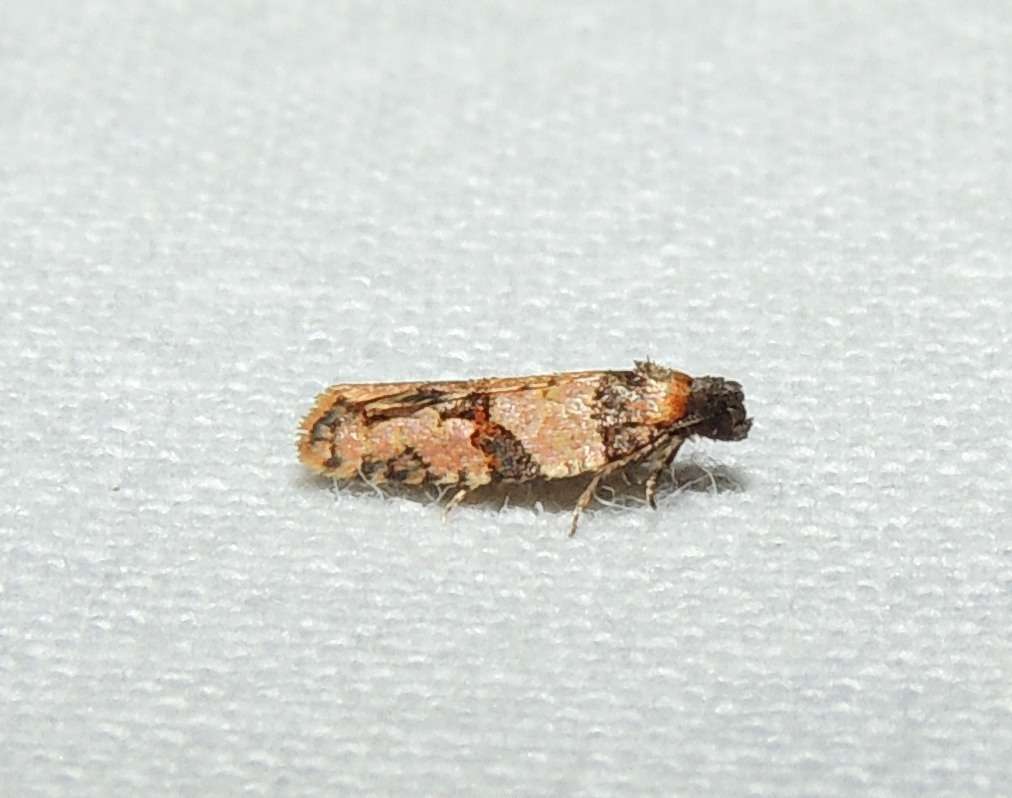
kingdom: Animalia
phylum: Arthropoda
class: Insecta
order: Lepidoptera
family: Tortricidae
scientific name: Tortricidae
